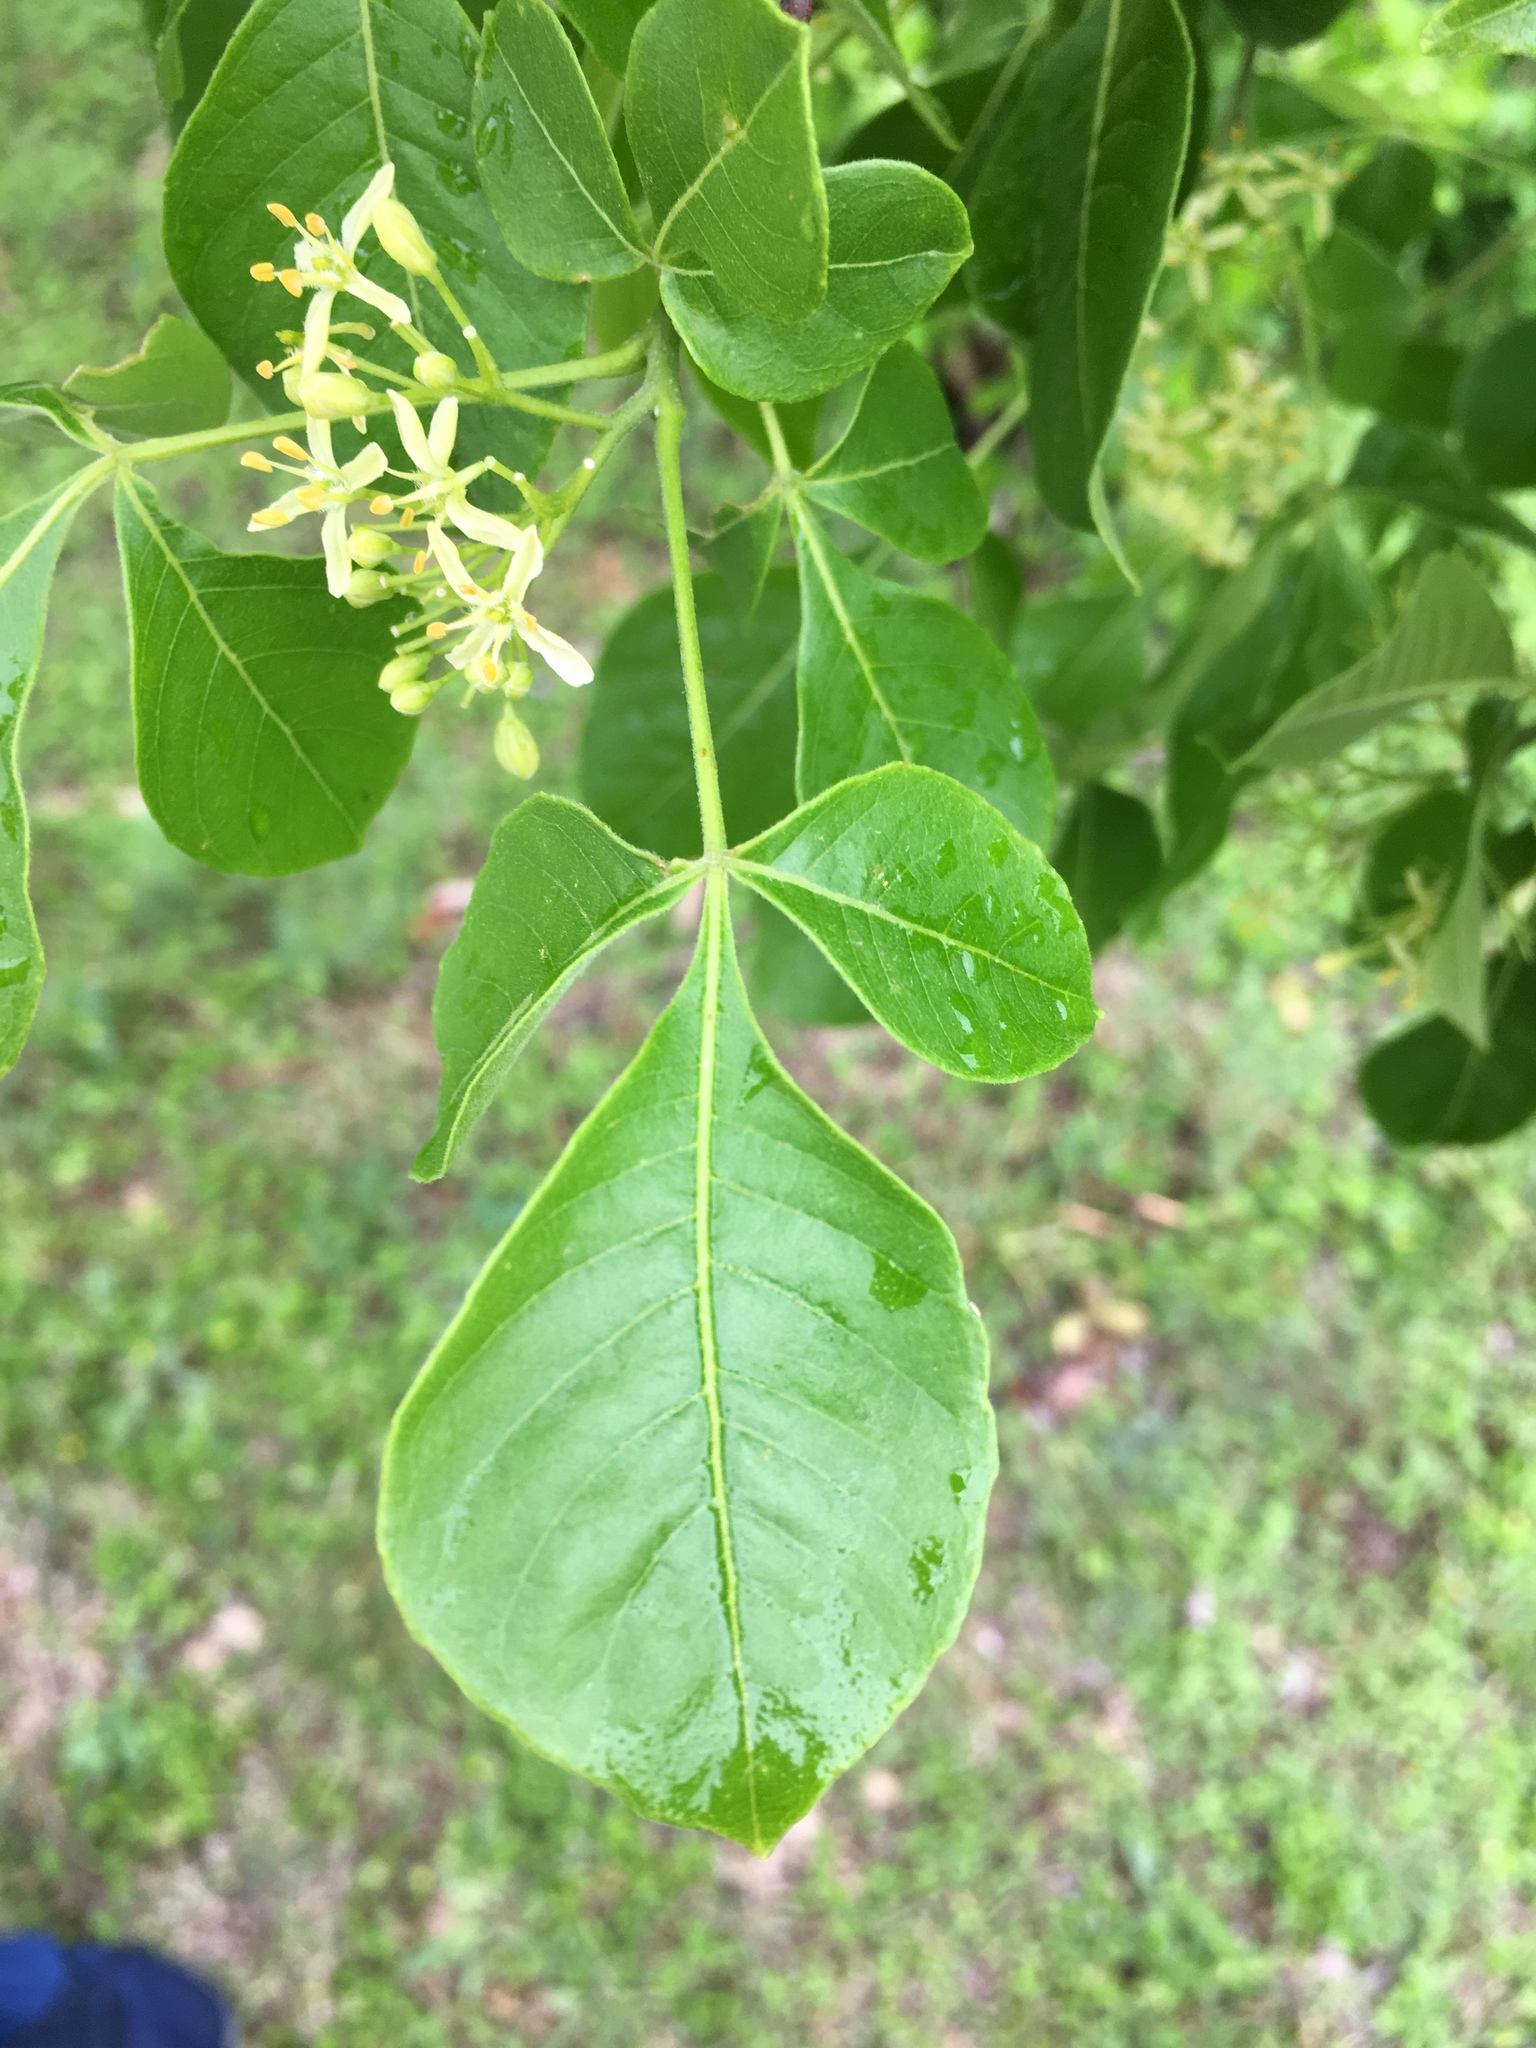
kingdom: Plantae
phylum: Tracheophyta
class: Magnoliopsida
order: Sapindales
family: Rutaceae
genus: Ptelea
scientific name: Ptelea trifoliata
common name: Common hop-tree
